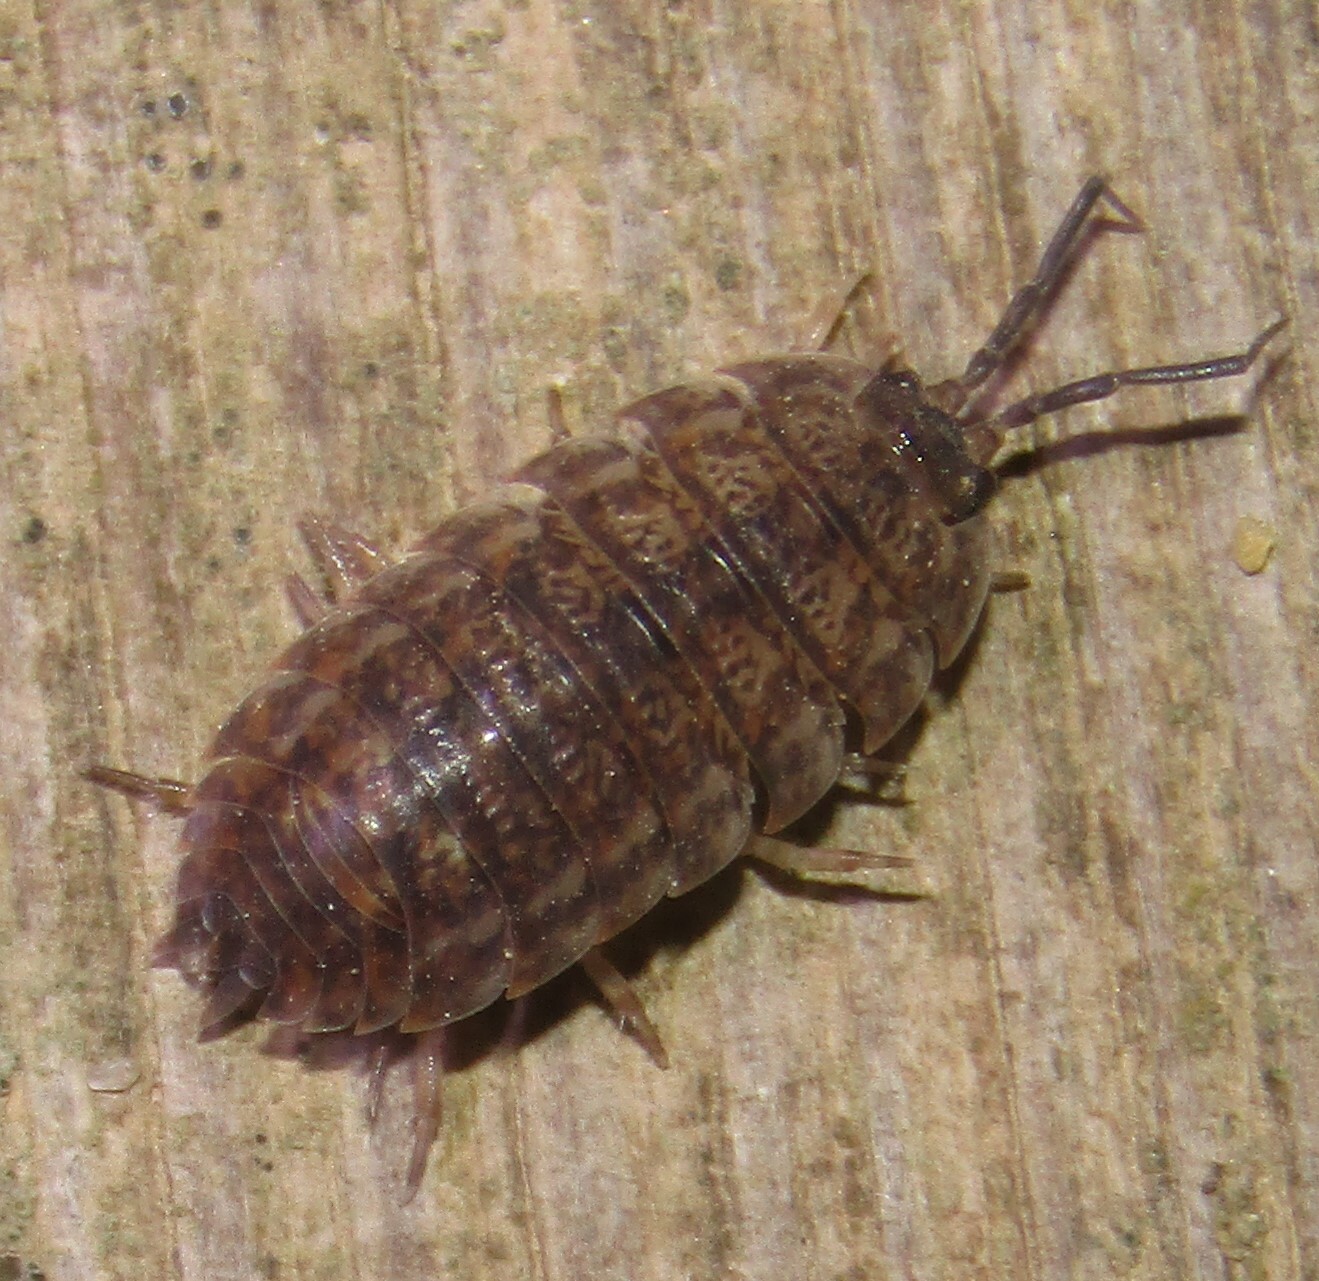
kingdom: Animalia
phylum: Arthropoda
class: Malacostraca
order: Isopoda
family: Trachelipodidae
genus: Trachelipus
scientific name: Trachelipus rathkii
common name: Isopod
